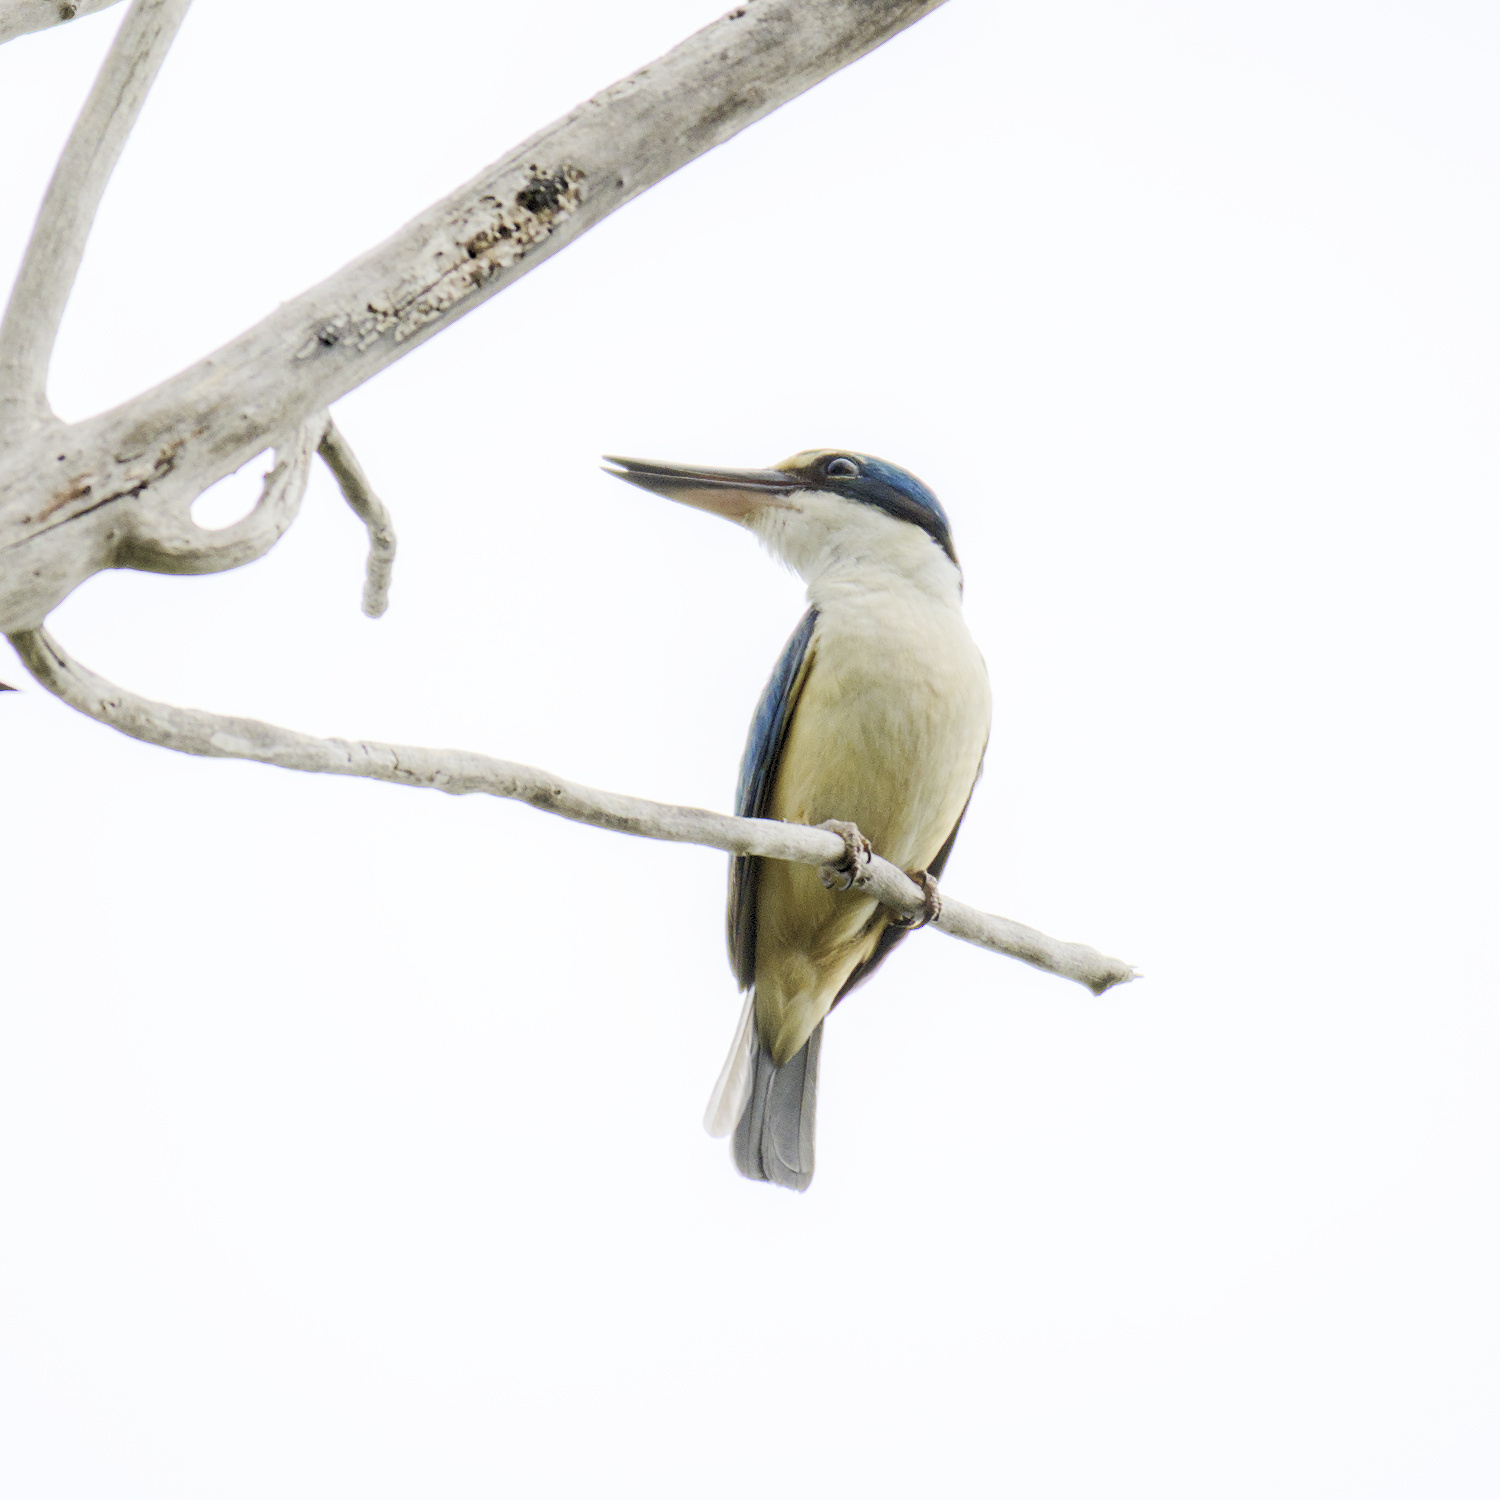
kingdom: Animalia
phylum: Chordata
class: Aves
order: Coraciiformes
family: Alcedinidae
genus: Todiramphus
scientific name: Todiramphus sanctus
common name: Sacred kingfisher
